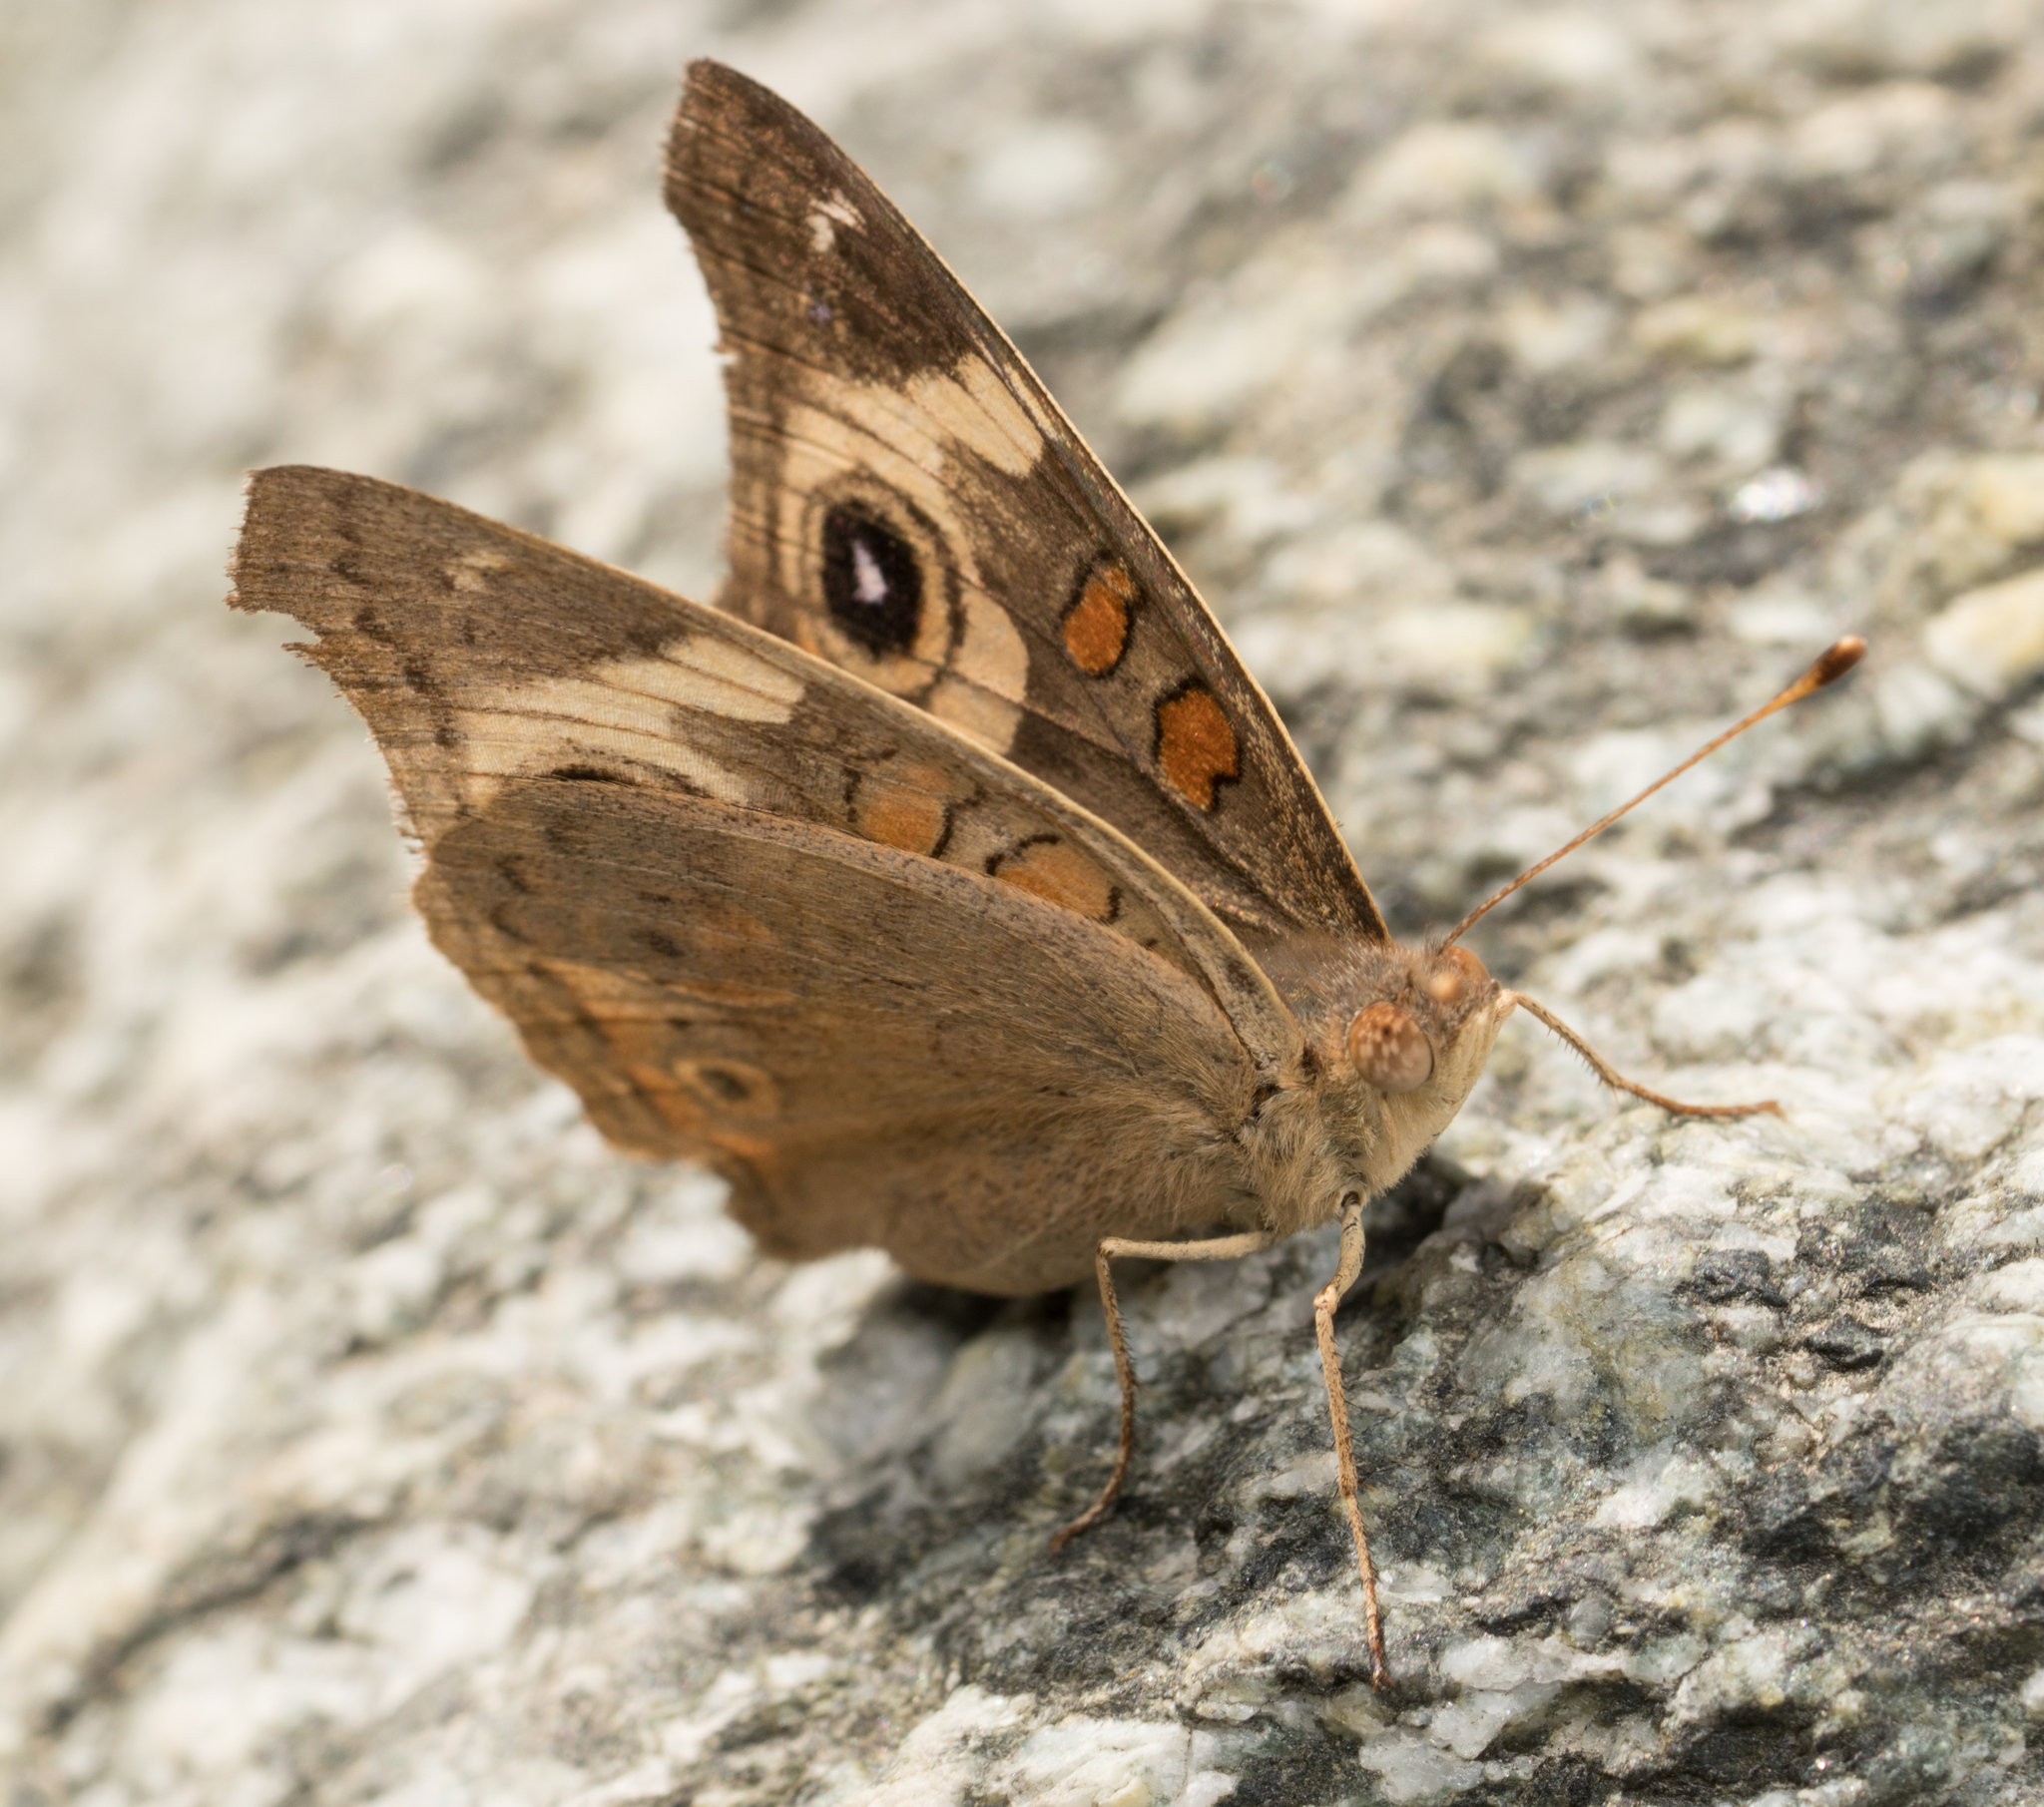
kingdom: Animalia
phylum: Arthropoda
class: Insecta
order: Lepidoptera
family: Nymphalidae
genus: Junonia
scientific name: Junonia grisea
